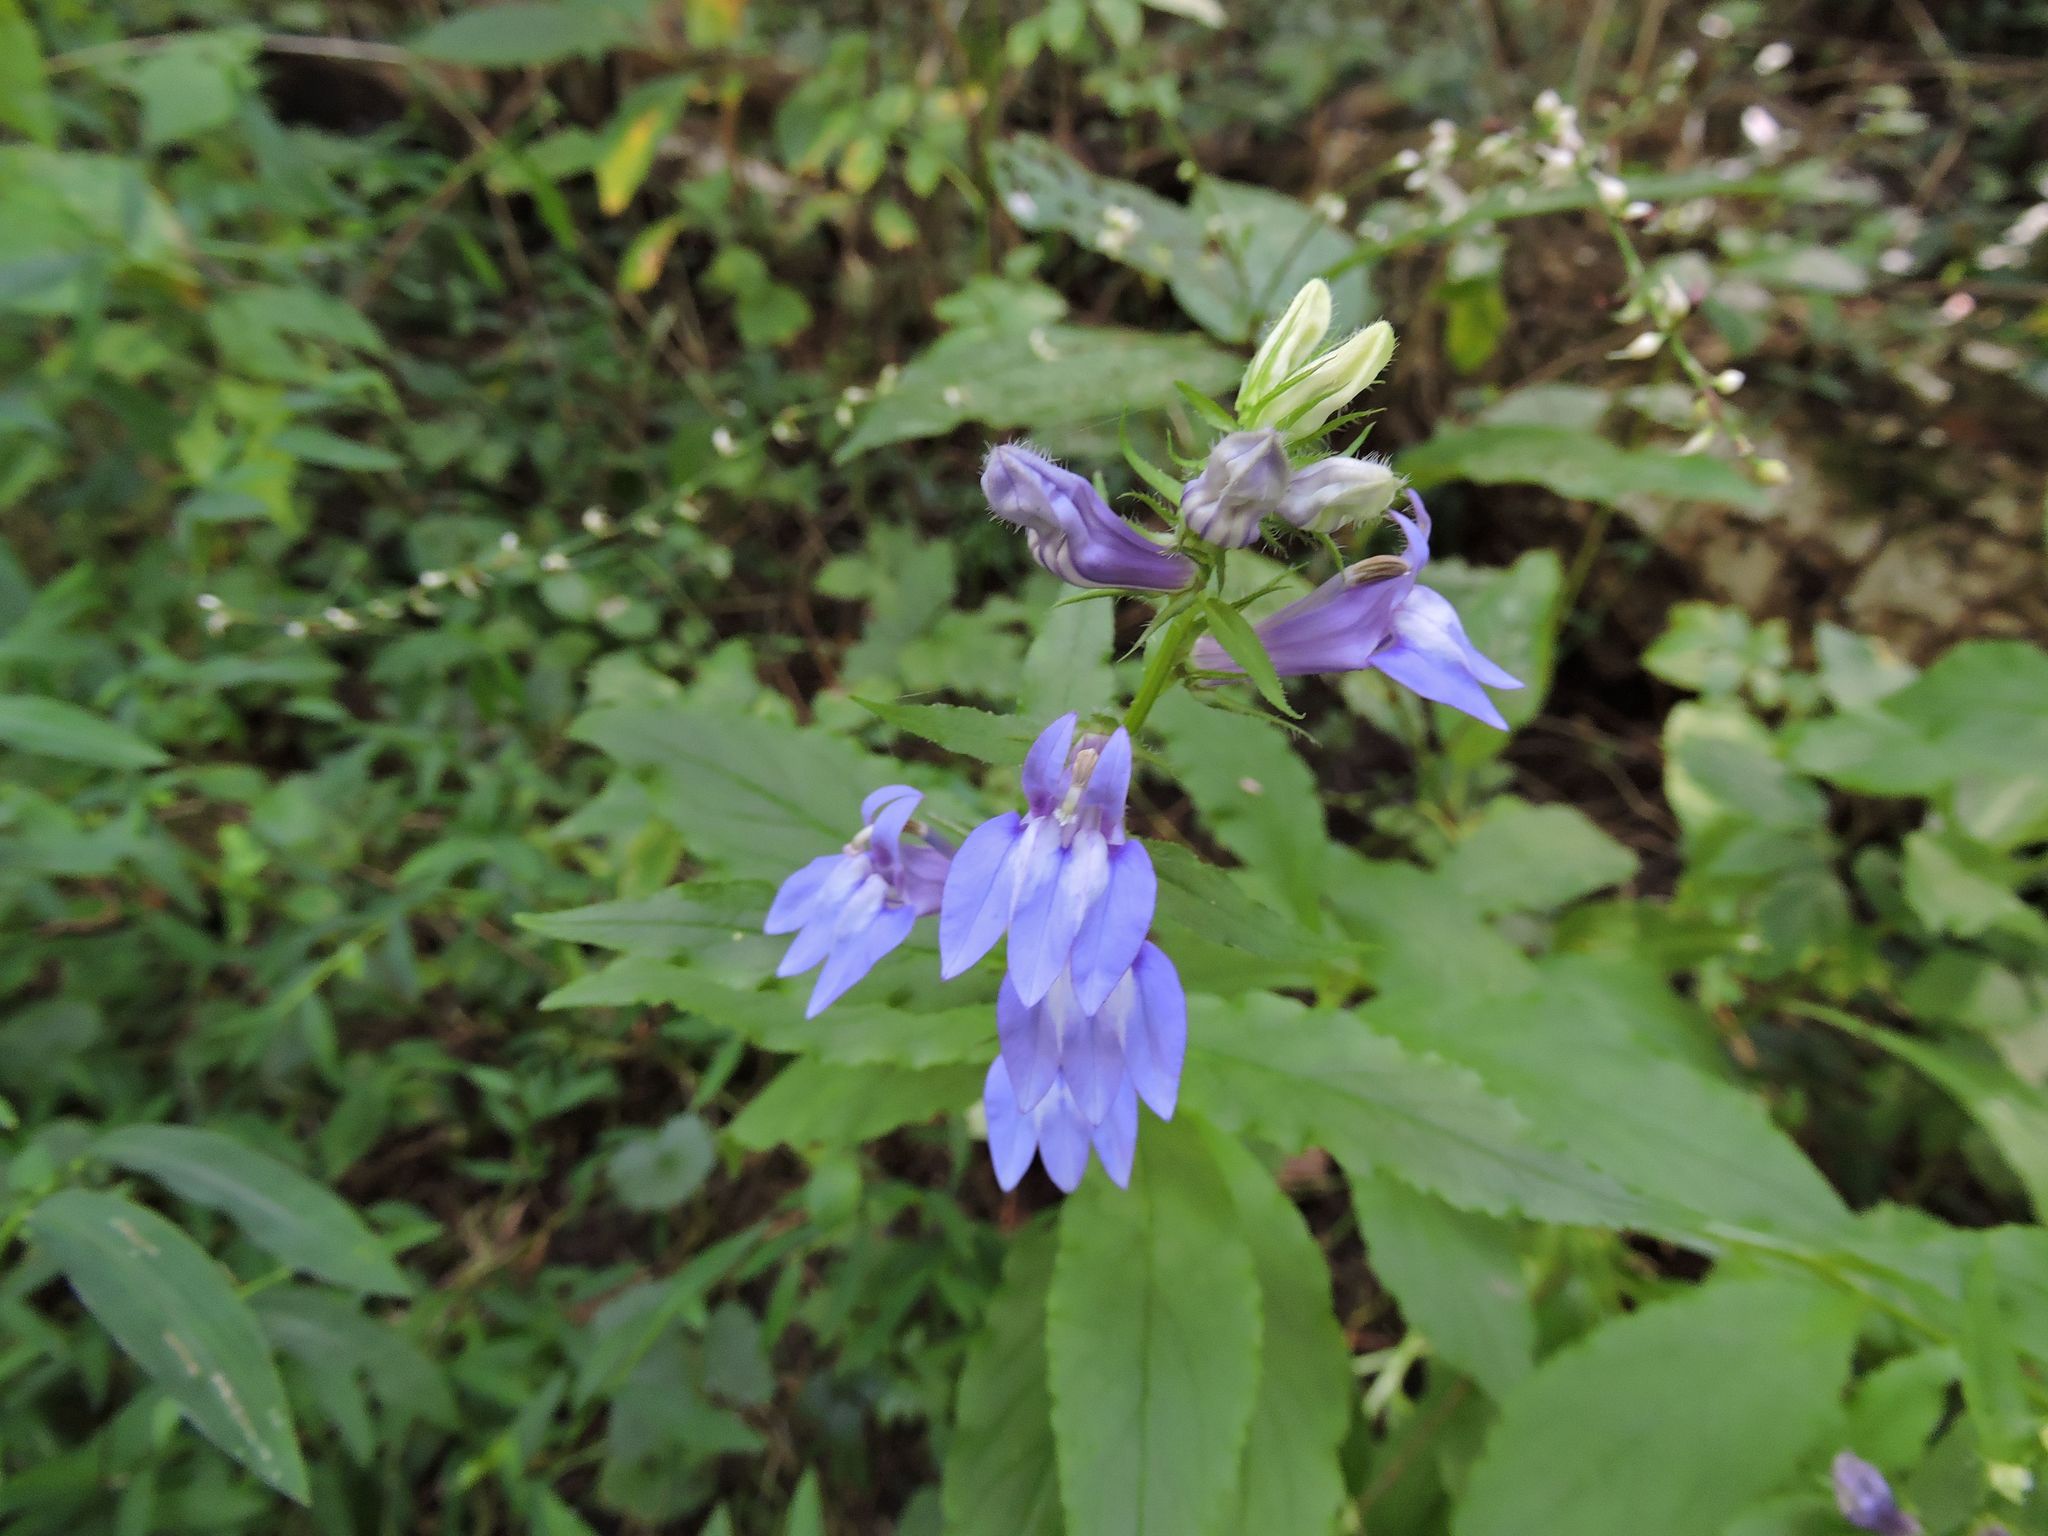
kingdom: Plantae
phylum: Tracheophyta
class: Magnoliopsida
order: Asterales
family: Campanulaceae
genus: Lobelia
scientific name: Lobelia siphilitica
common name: Great lobelia
